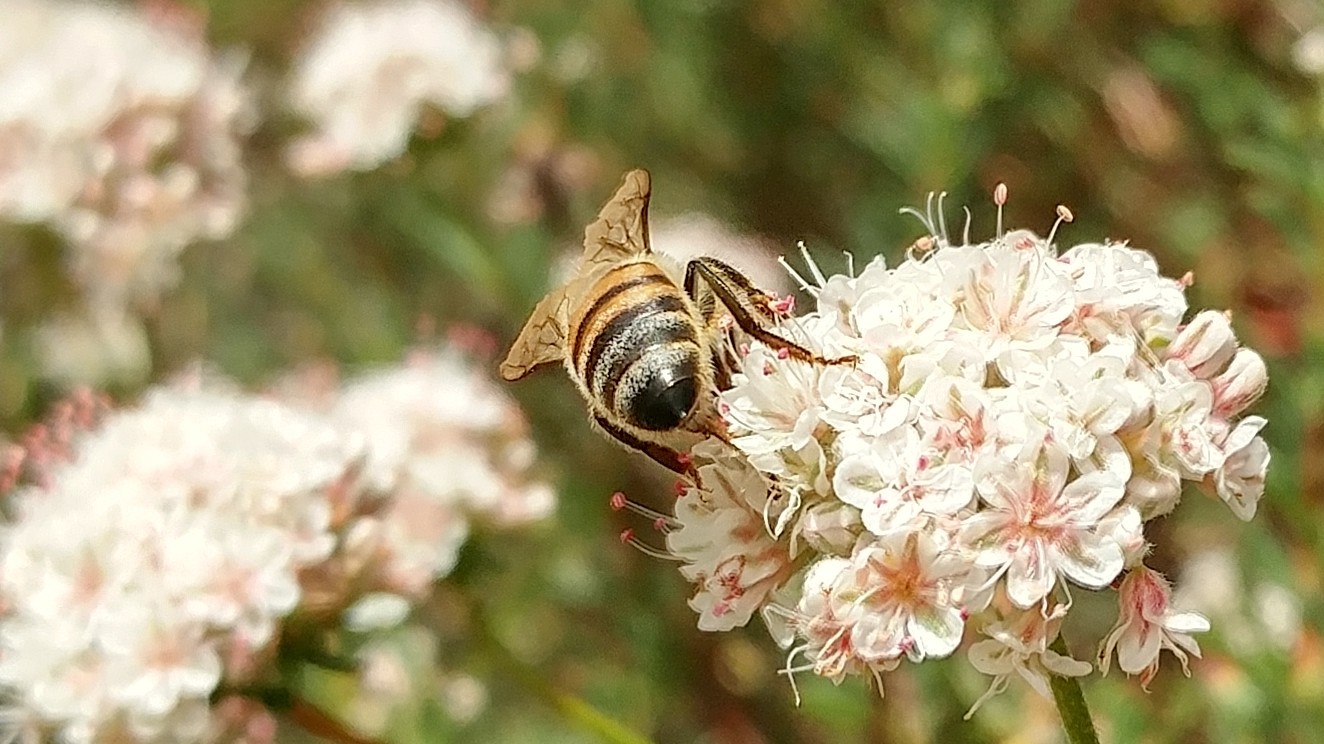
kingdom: Animalia
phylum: Arthropoda
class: Insecta
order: Hymenoptera
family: Apidae
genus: Apis
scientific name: Apis mellifera
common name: Honey bee
